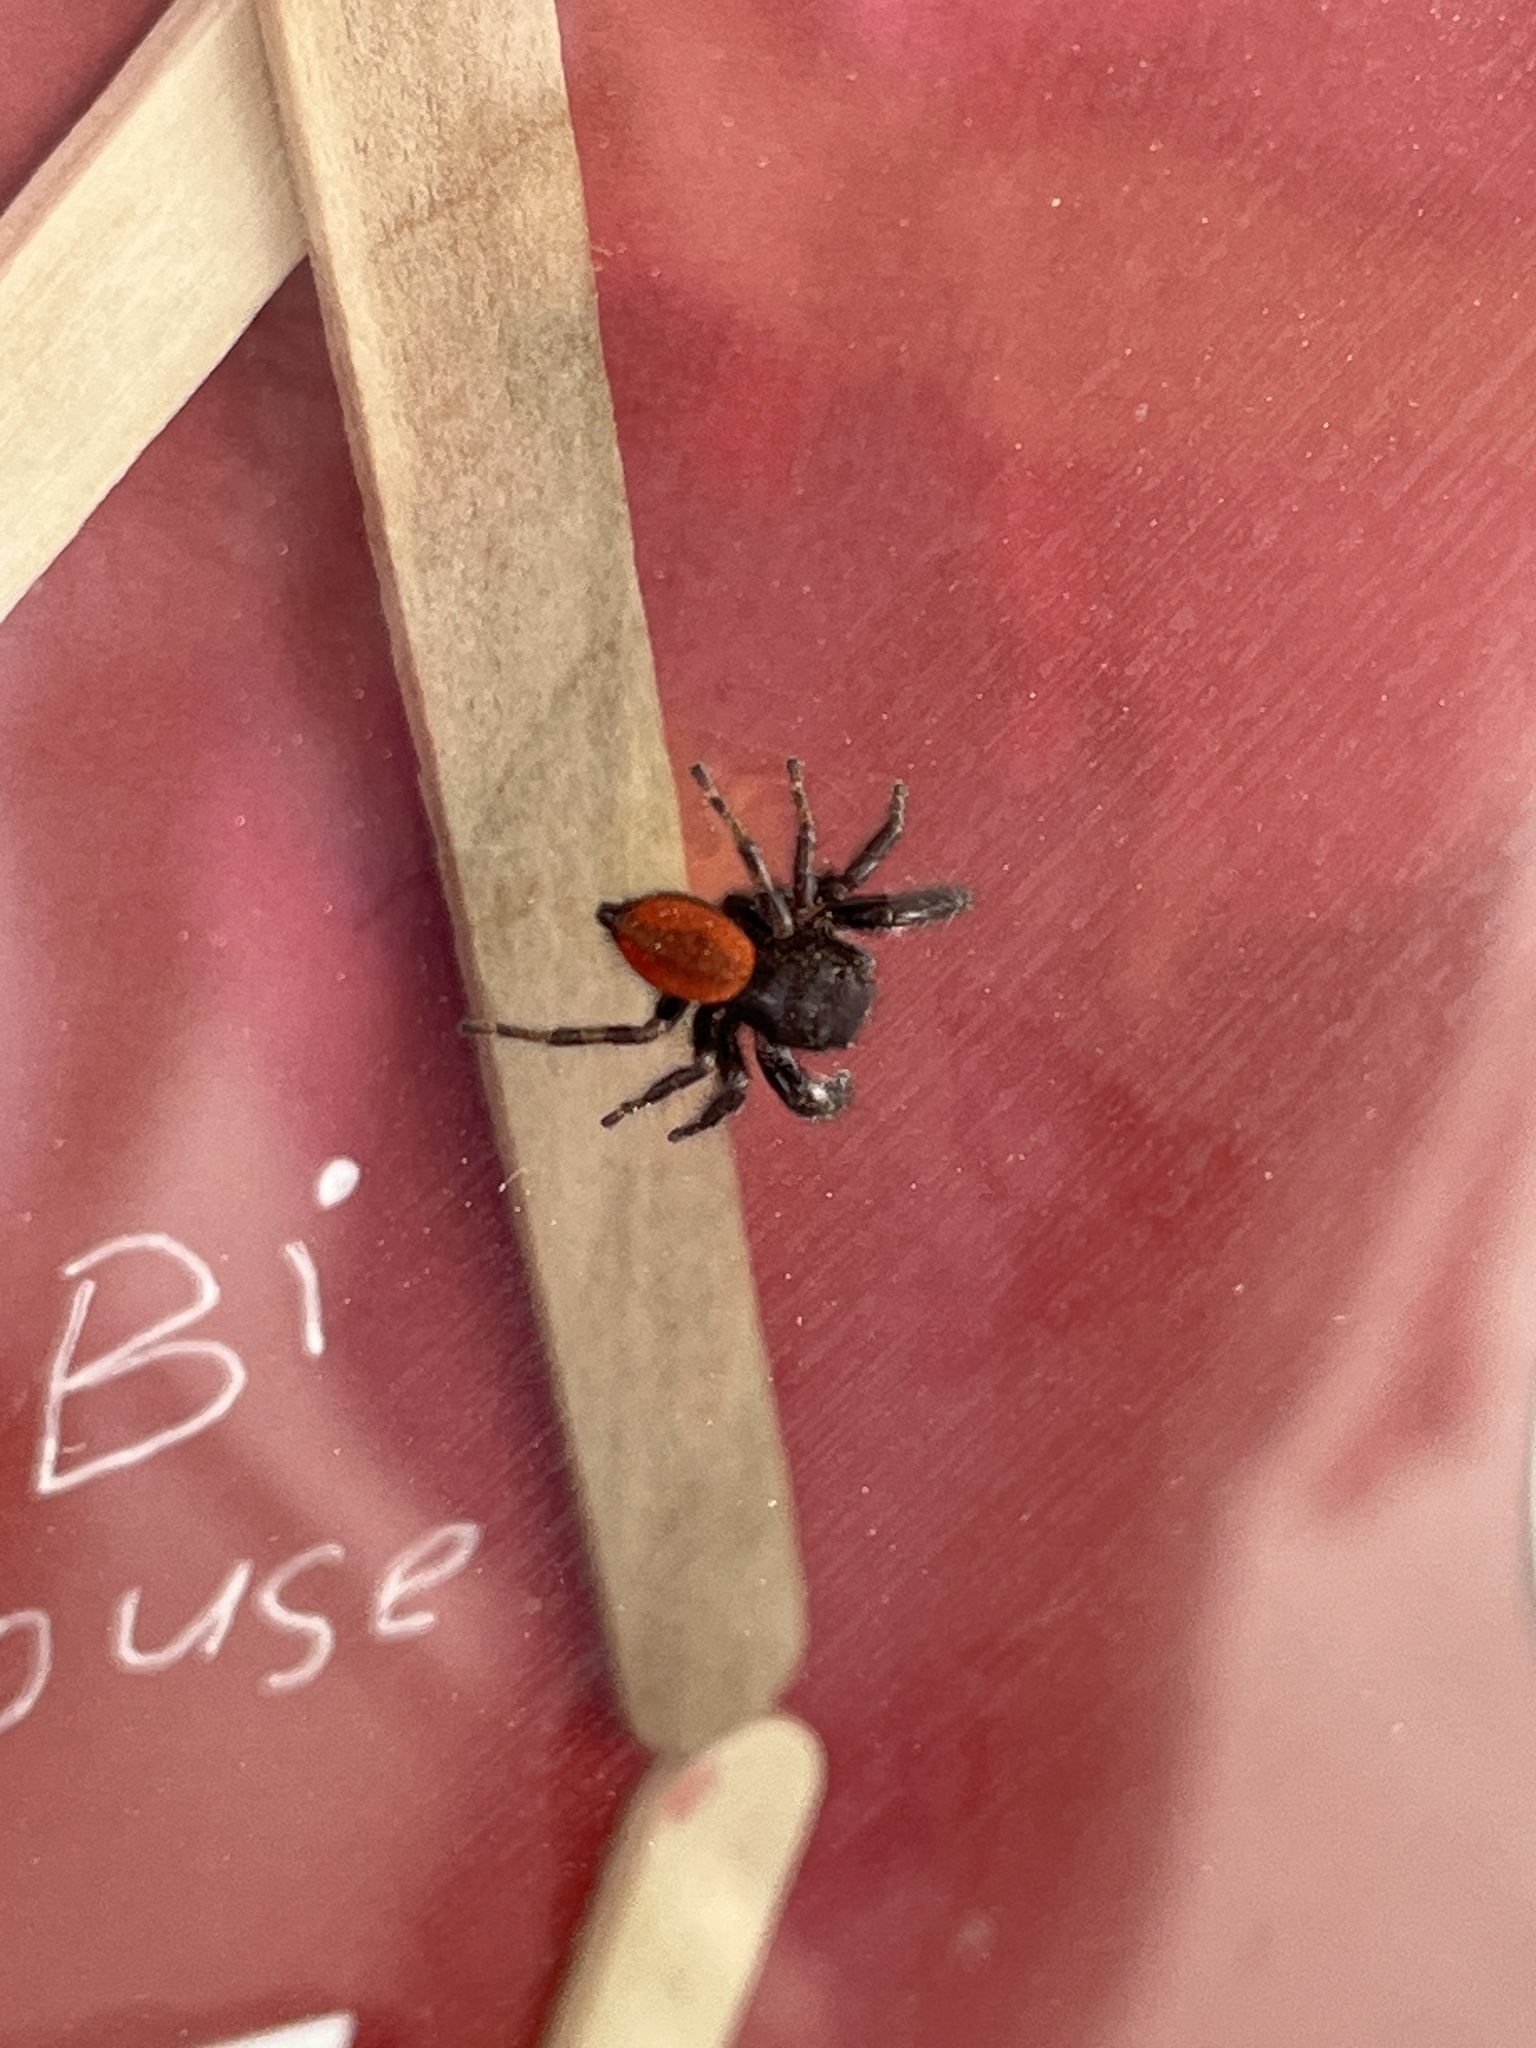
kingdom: Animalia
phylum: Arthropoda
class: Arachnida
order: Araneae
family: Salticidae
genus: Phidippus
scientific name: Phidippus johnsoni
